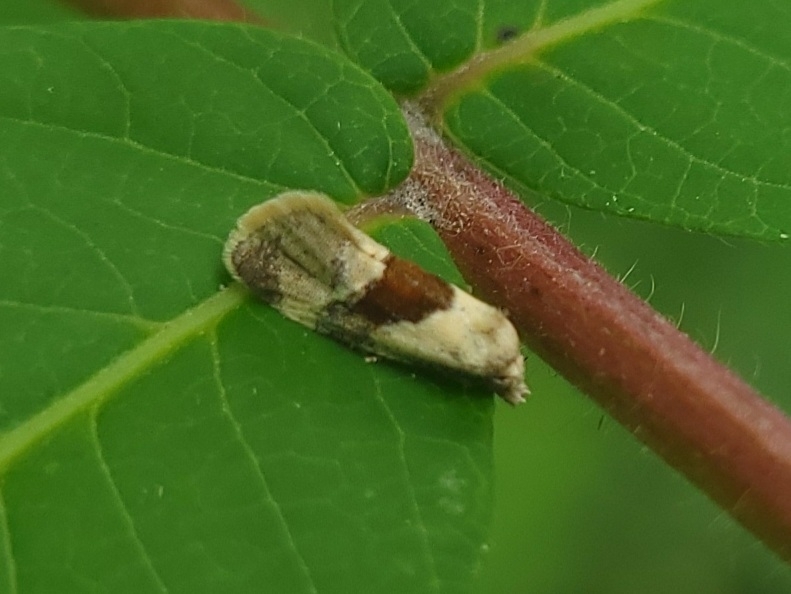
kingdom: Animalia
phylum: Arthropoda
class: Insecta
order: Lepidoptera
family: Tortricidae
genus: Phalonidia
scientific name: Phalonidia lepidana
